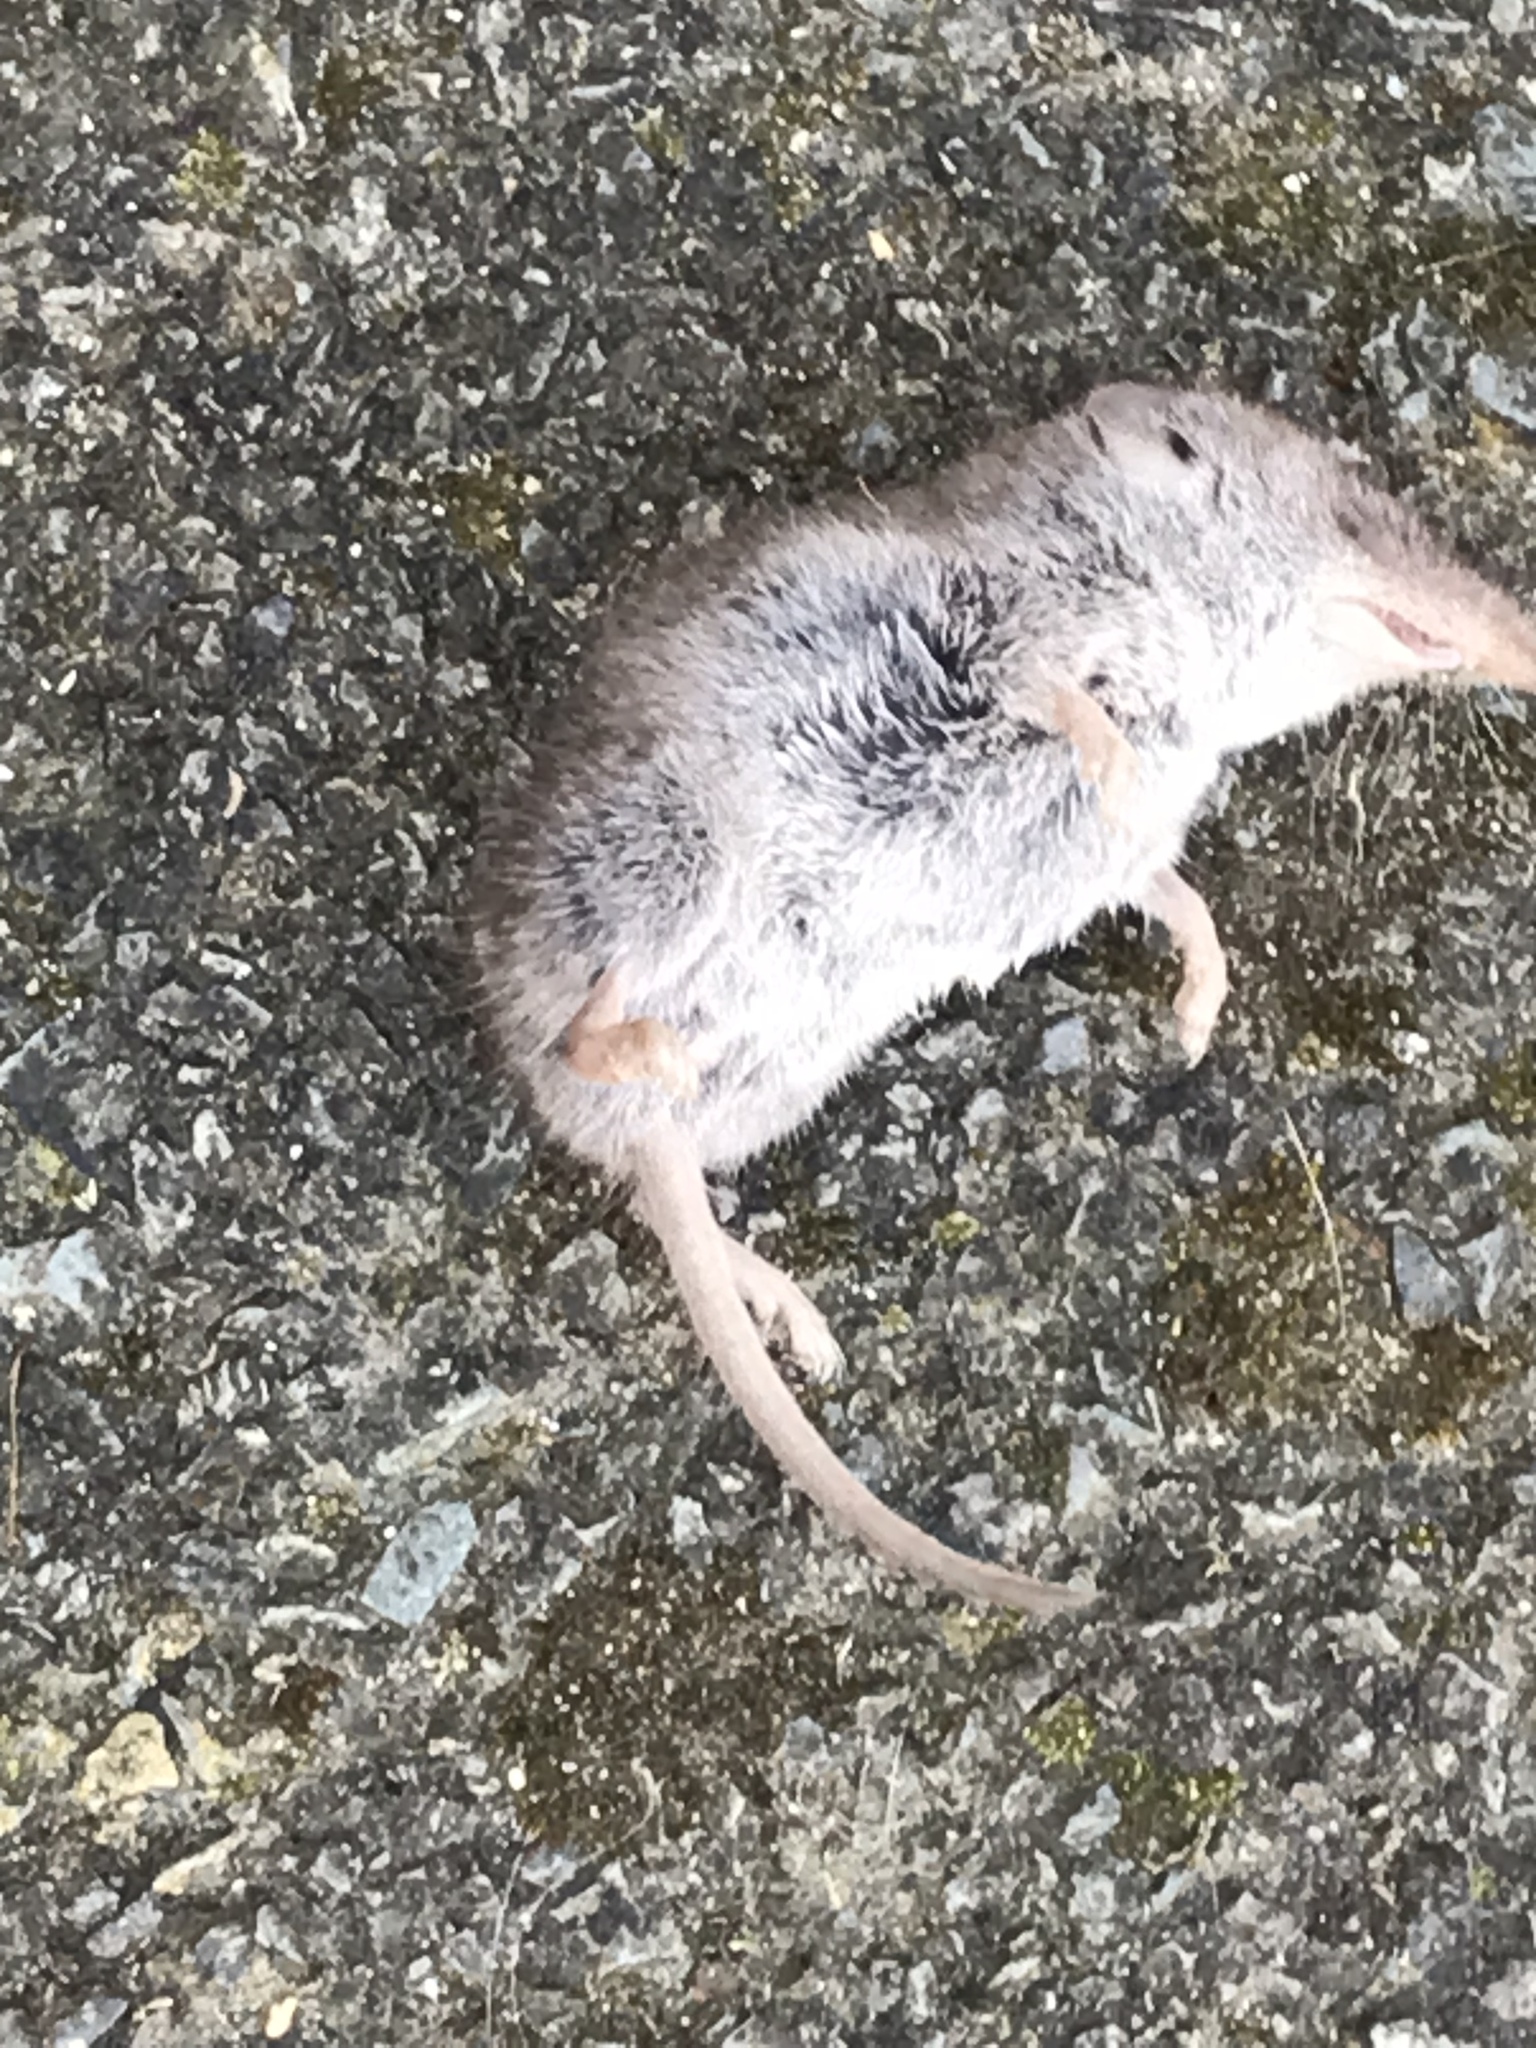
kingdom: Animalia
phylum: Chordata
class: Mammalia
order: Soricomorpha
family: Soricidae
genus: Crocidura
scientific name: Crocidura russula
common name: Greater white-toothed shrew
